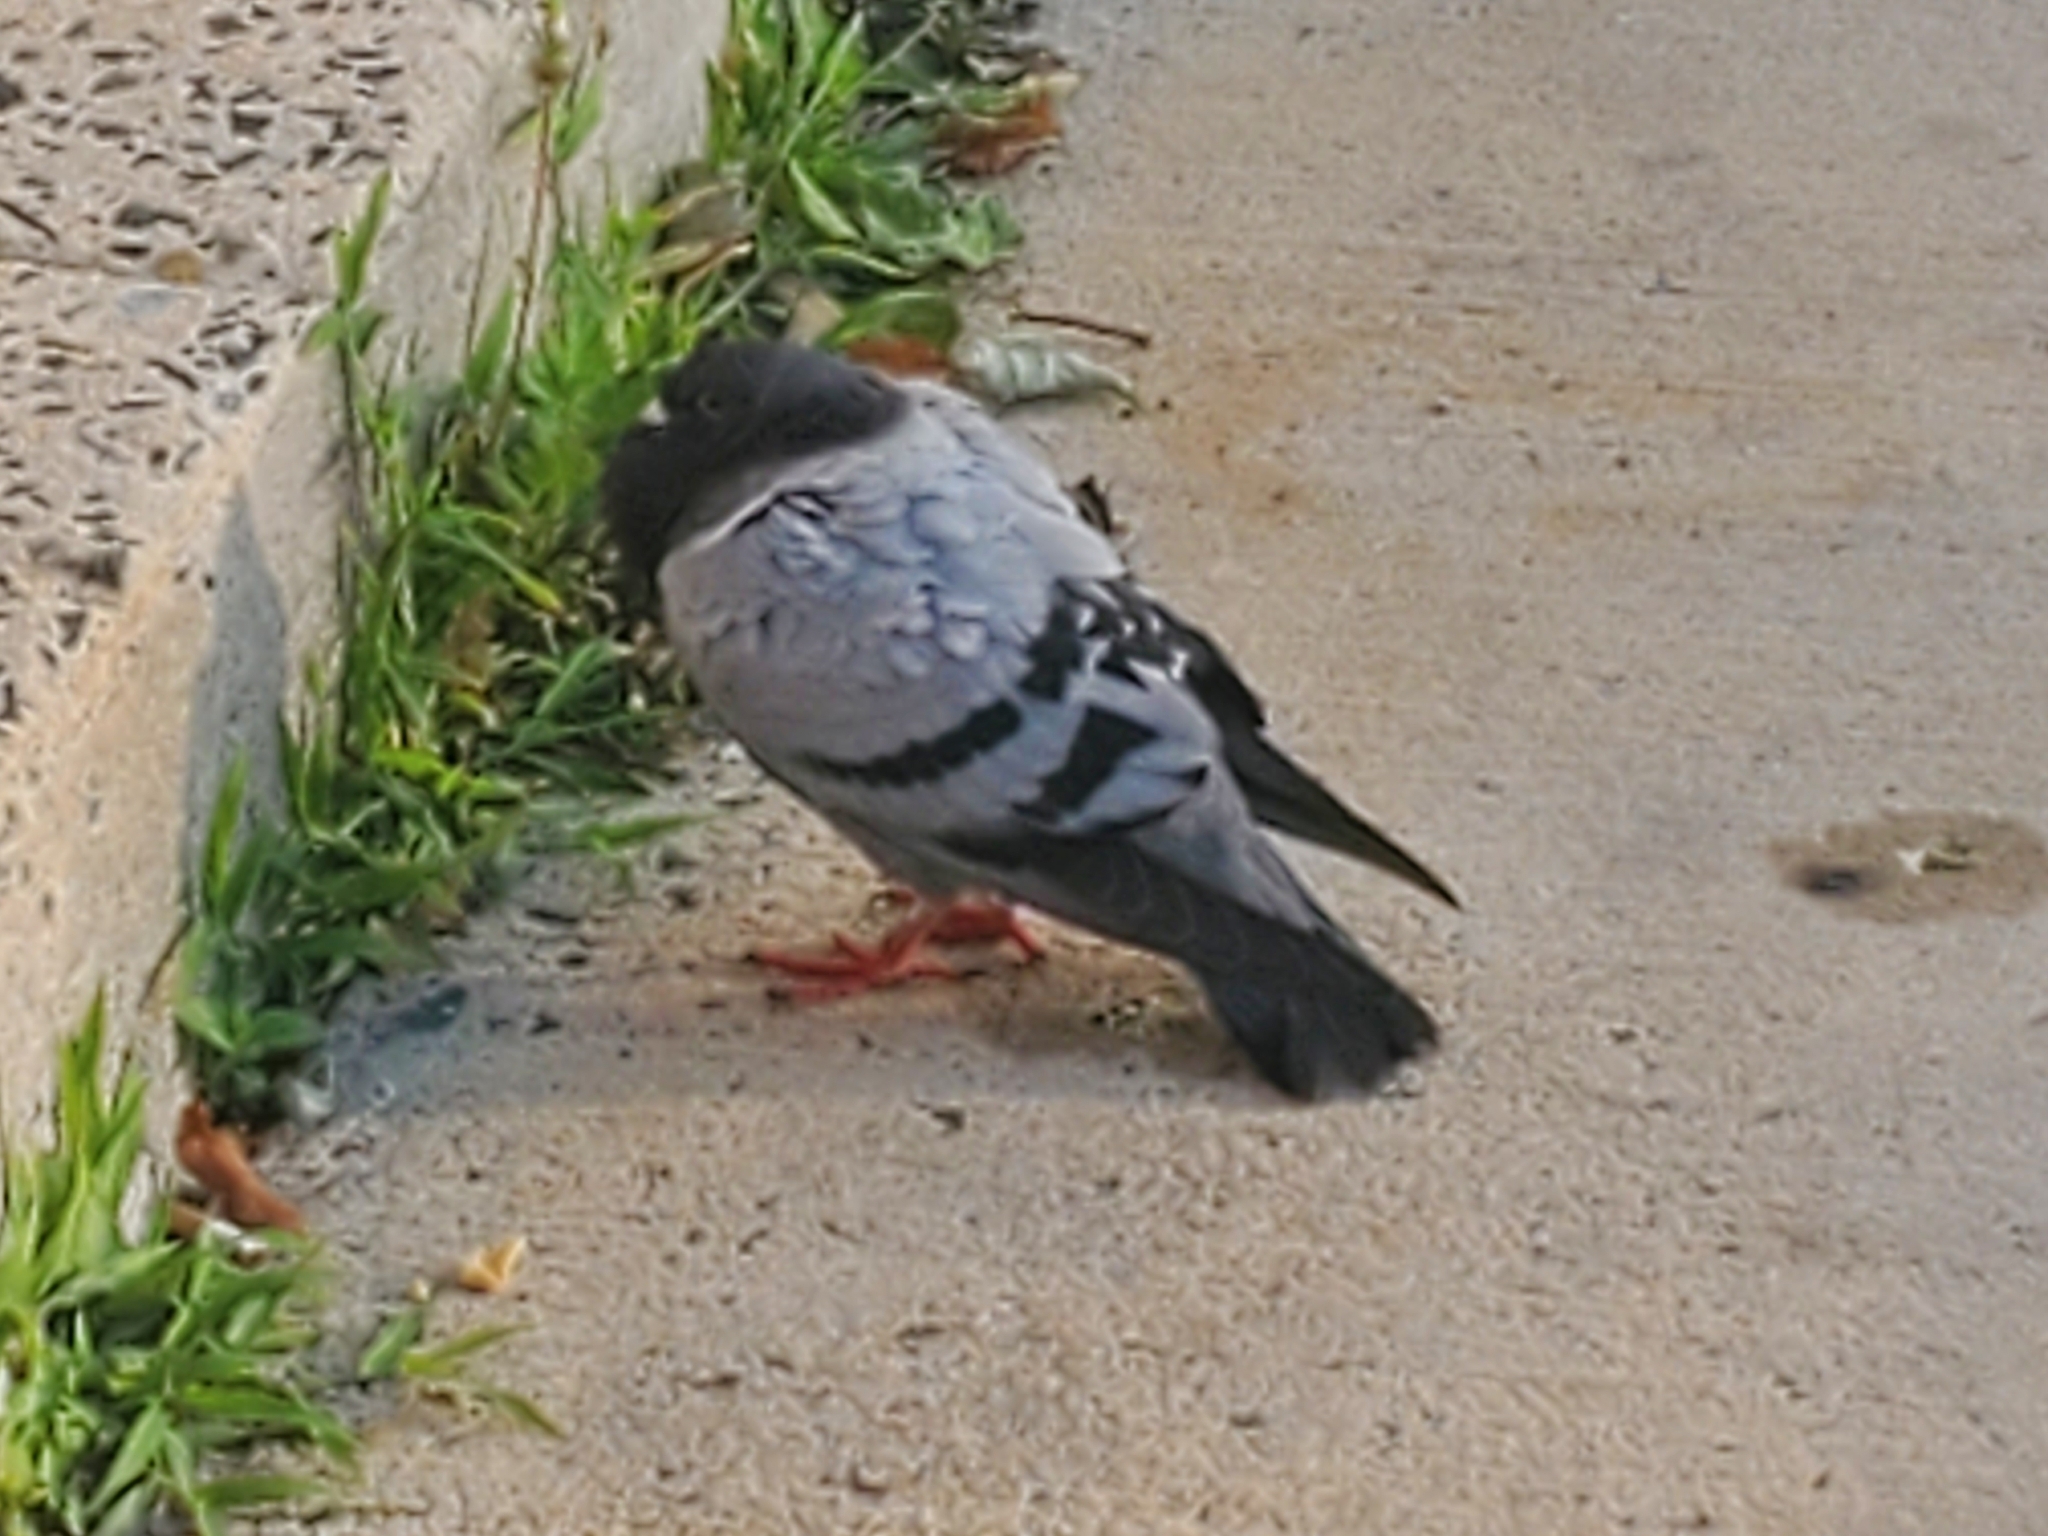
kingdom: Animalia
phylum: Chordata
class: Aves
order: Columbiformes
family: Columbidae
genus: Columba
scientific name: Columba livia
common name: Rock pigeon
